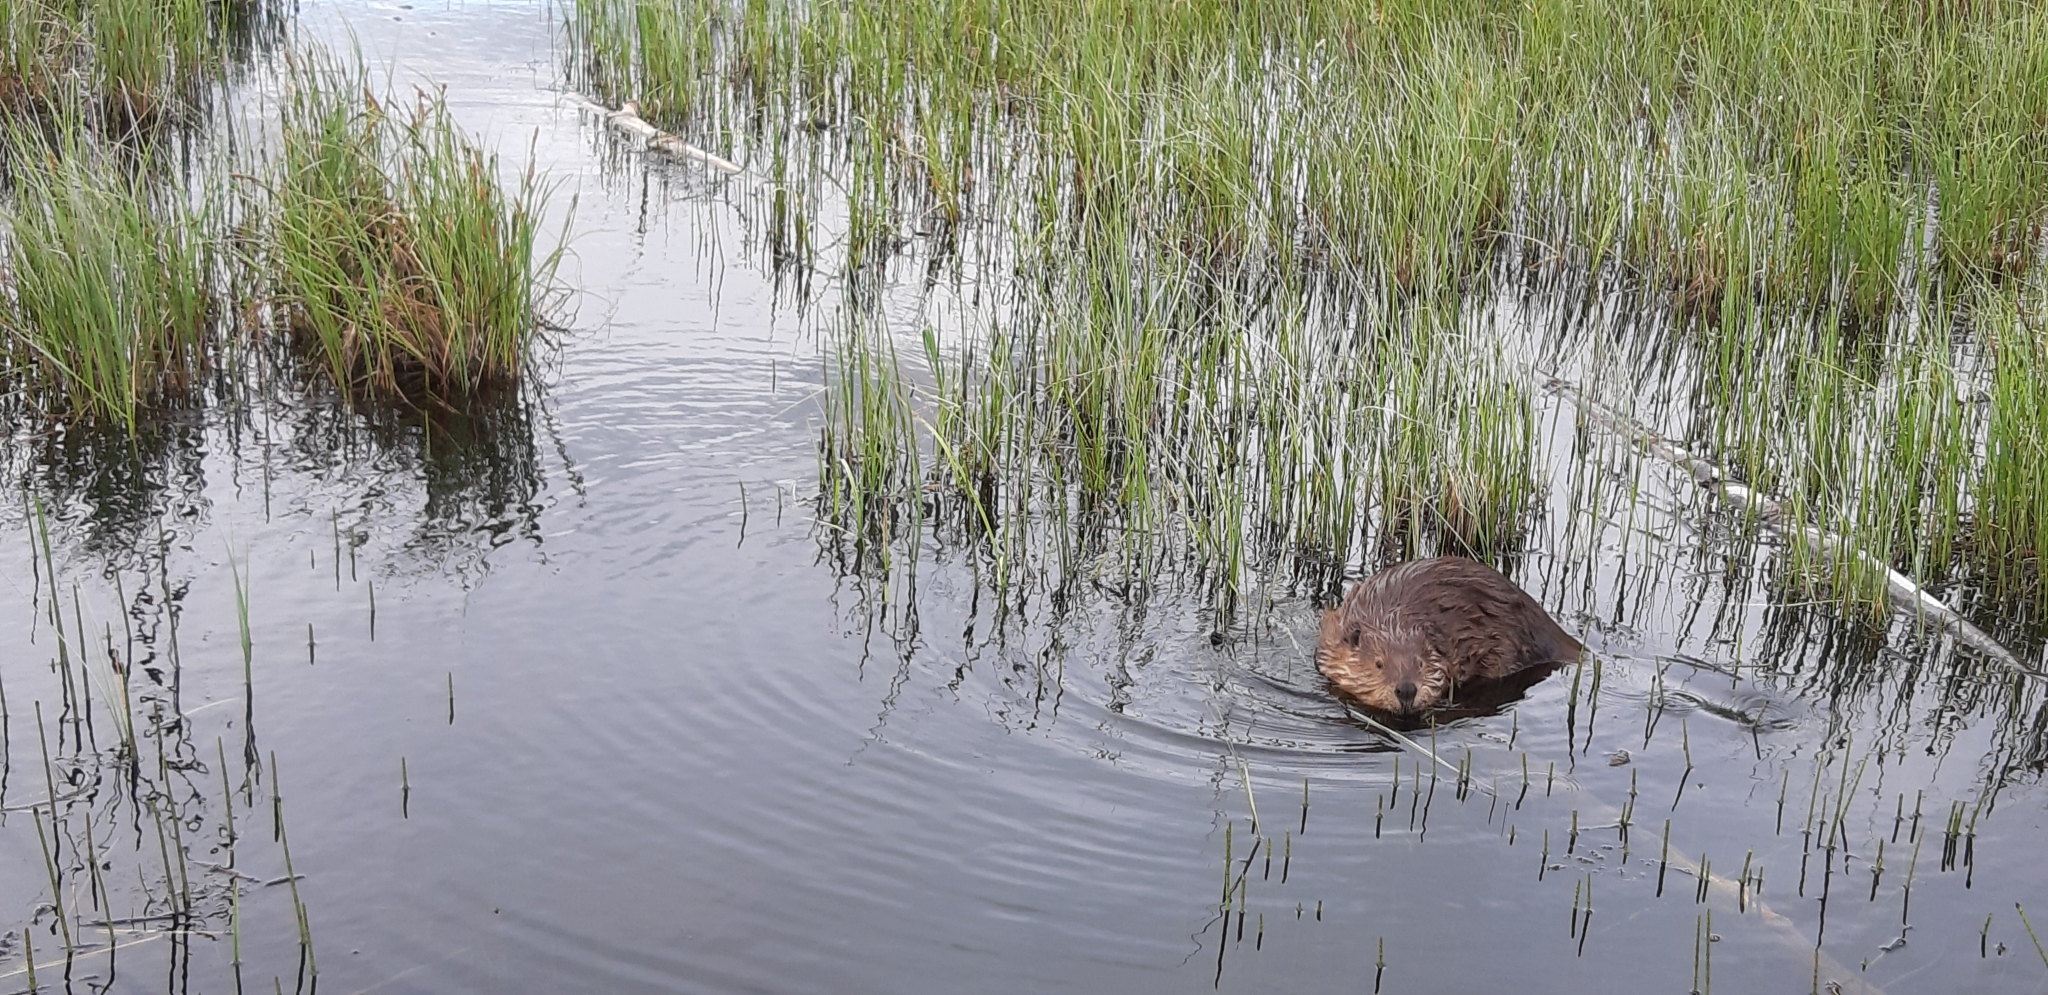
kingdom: Animalia
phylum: Chordata
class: Mammalia
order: Rodentia
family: Castoridae
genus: Castor
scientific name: Castor canadensis
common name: American beaver
